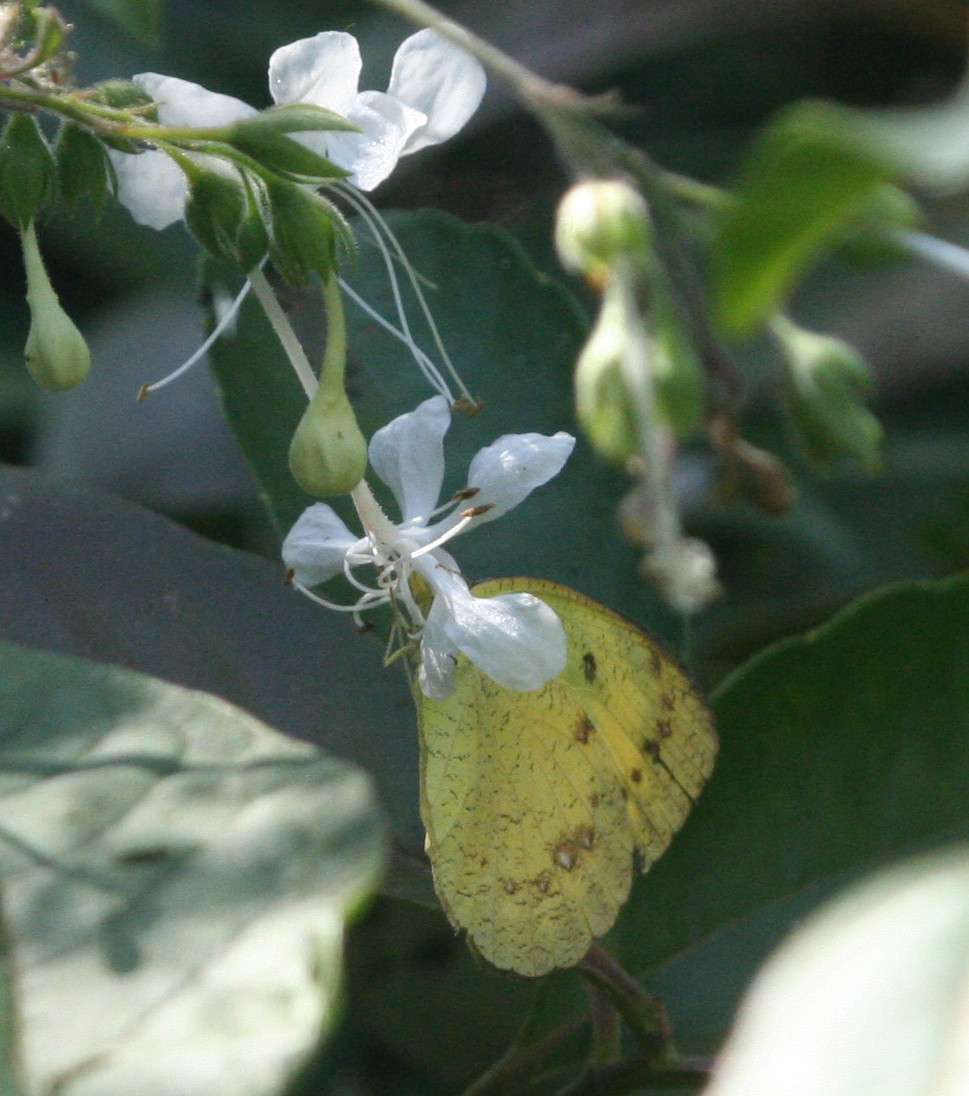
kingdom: Animalia
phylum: Arthropoda
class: Insecta
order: Lepidoptera
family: Pieridae
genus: Ixias
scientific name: Ixias pyrene
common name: Yellow orange tip
